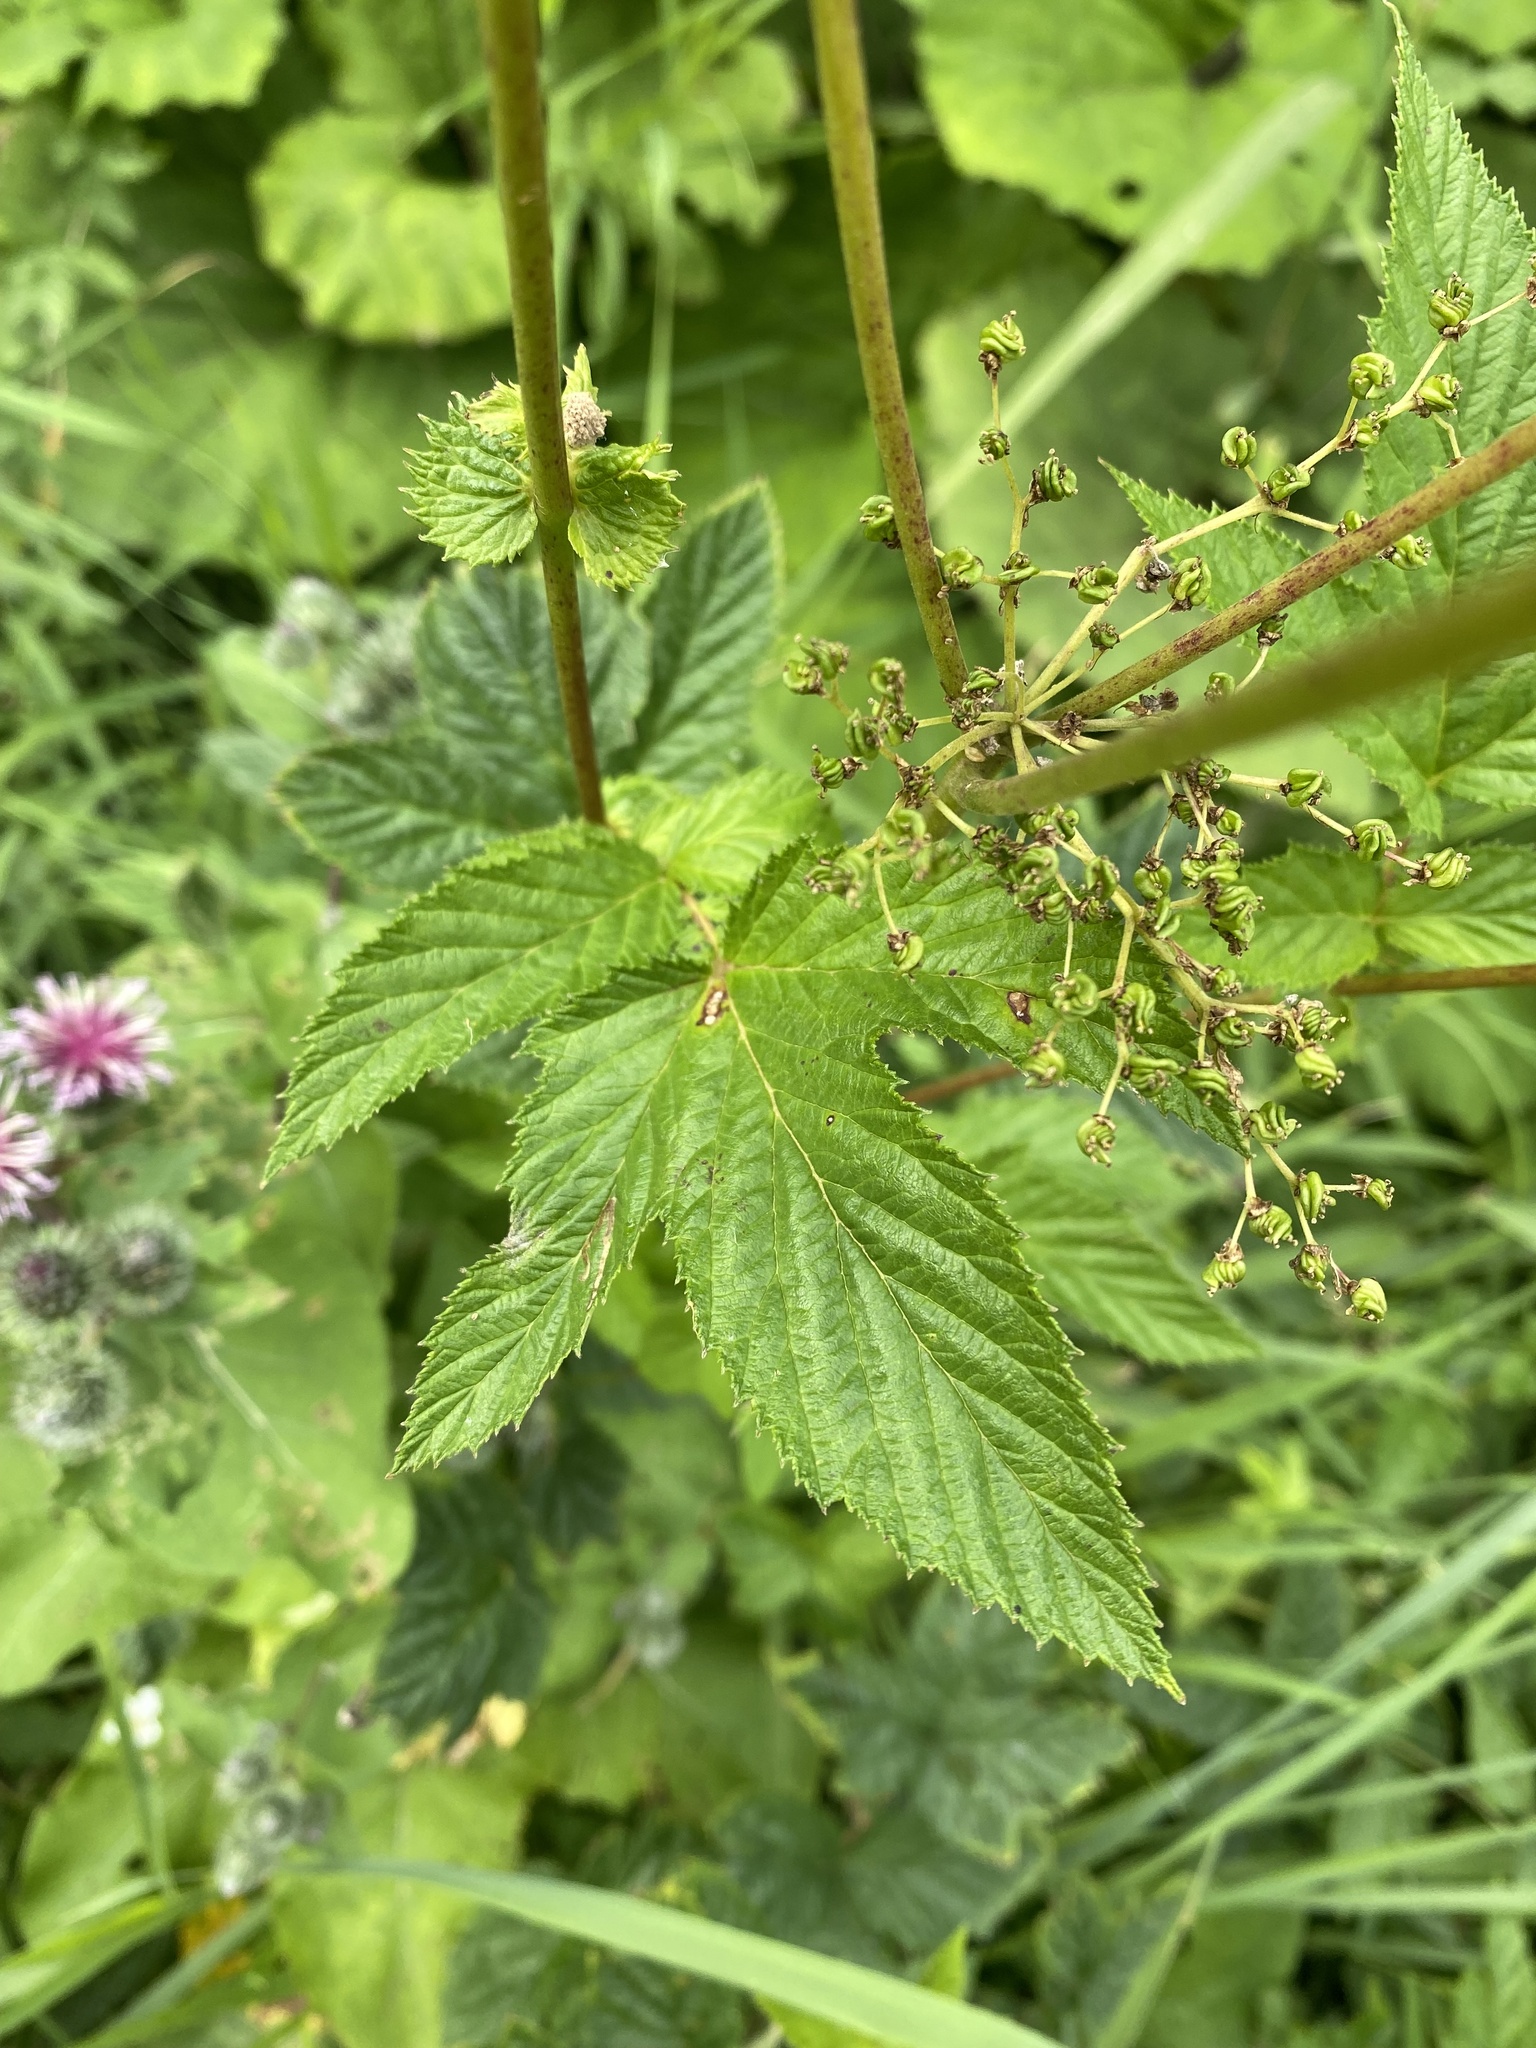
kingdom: Plantae
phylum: Tracheophyta
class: Magnoliopsida
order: Rosales
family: Rosaceae
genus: Filipendula
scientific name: Filipendula ulmaria
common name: Meadowsweet
